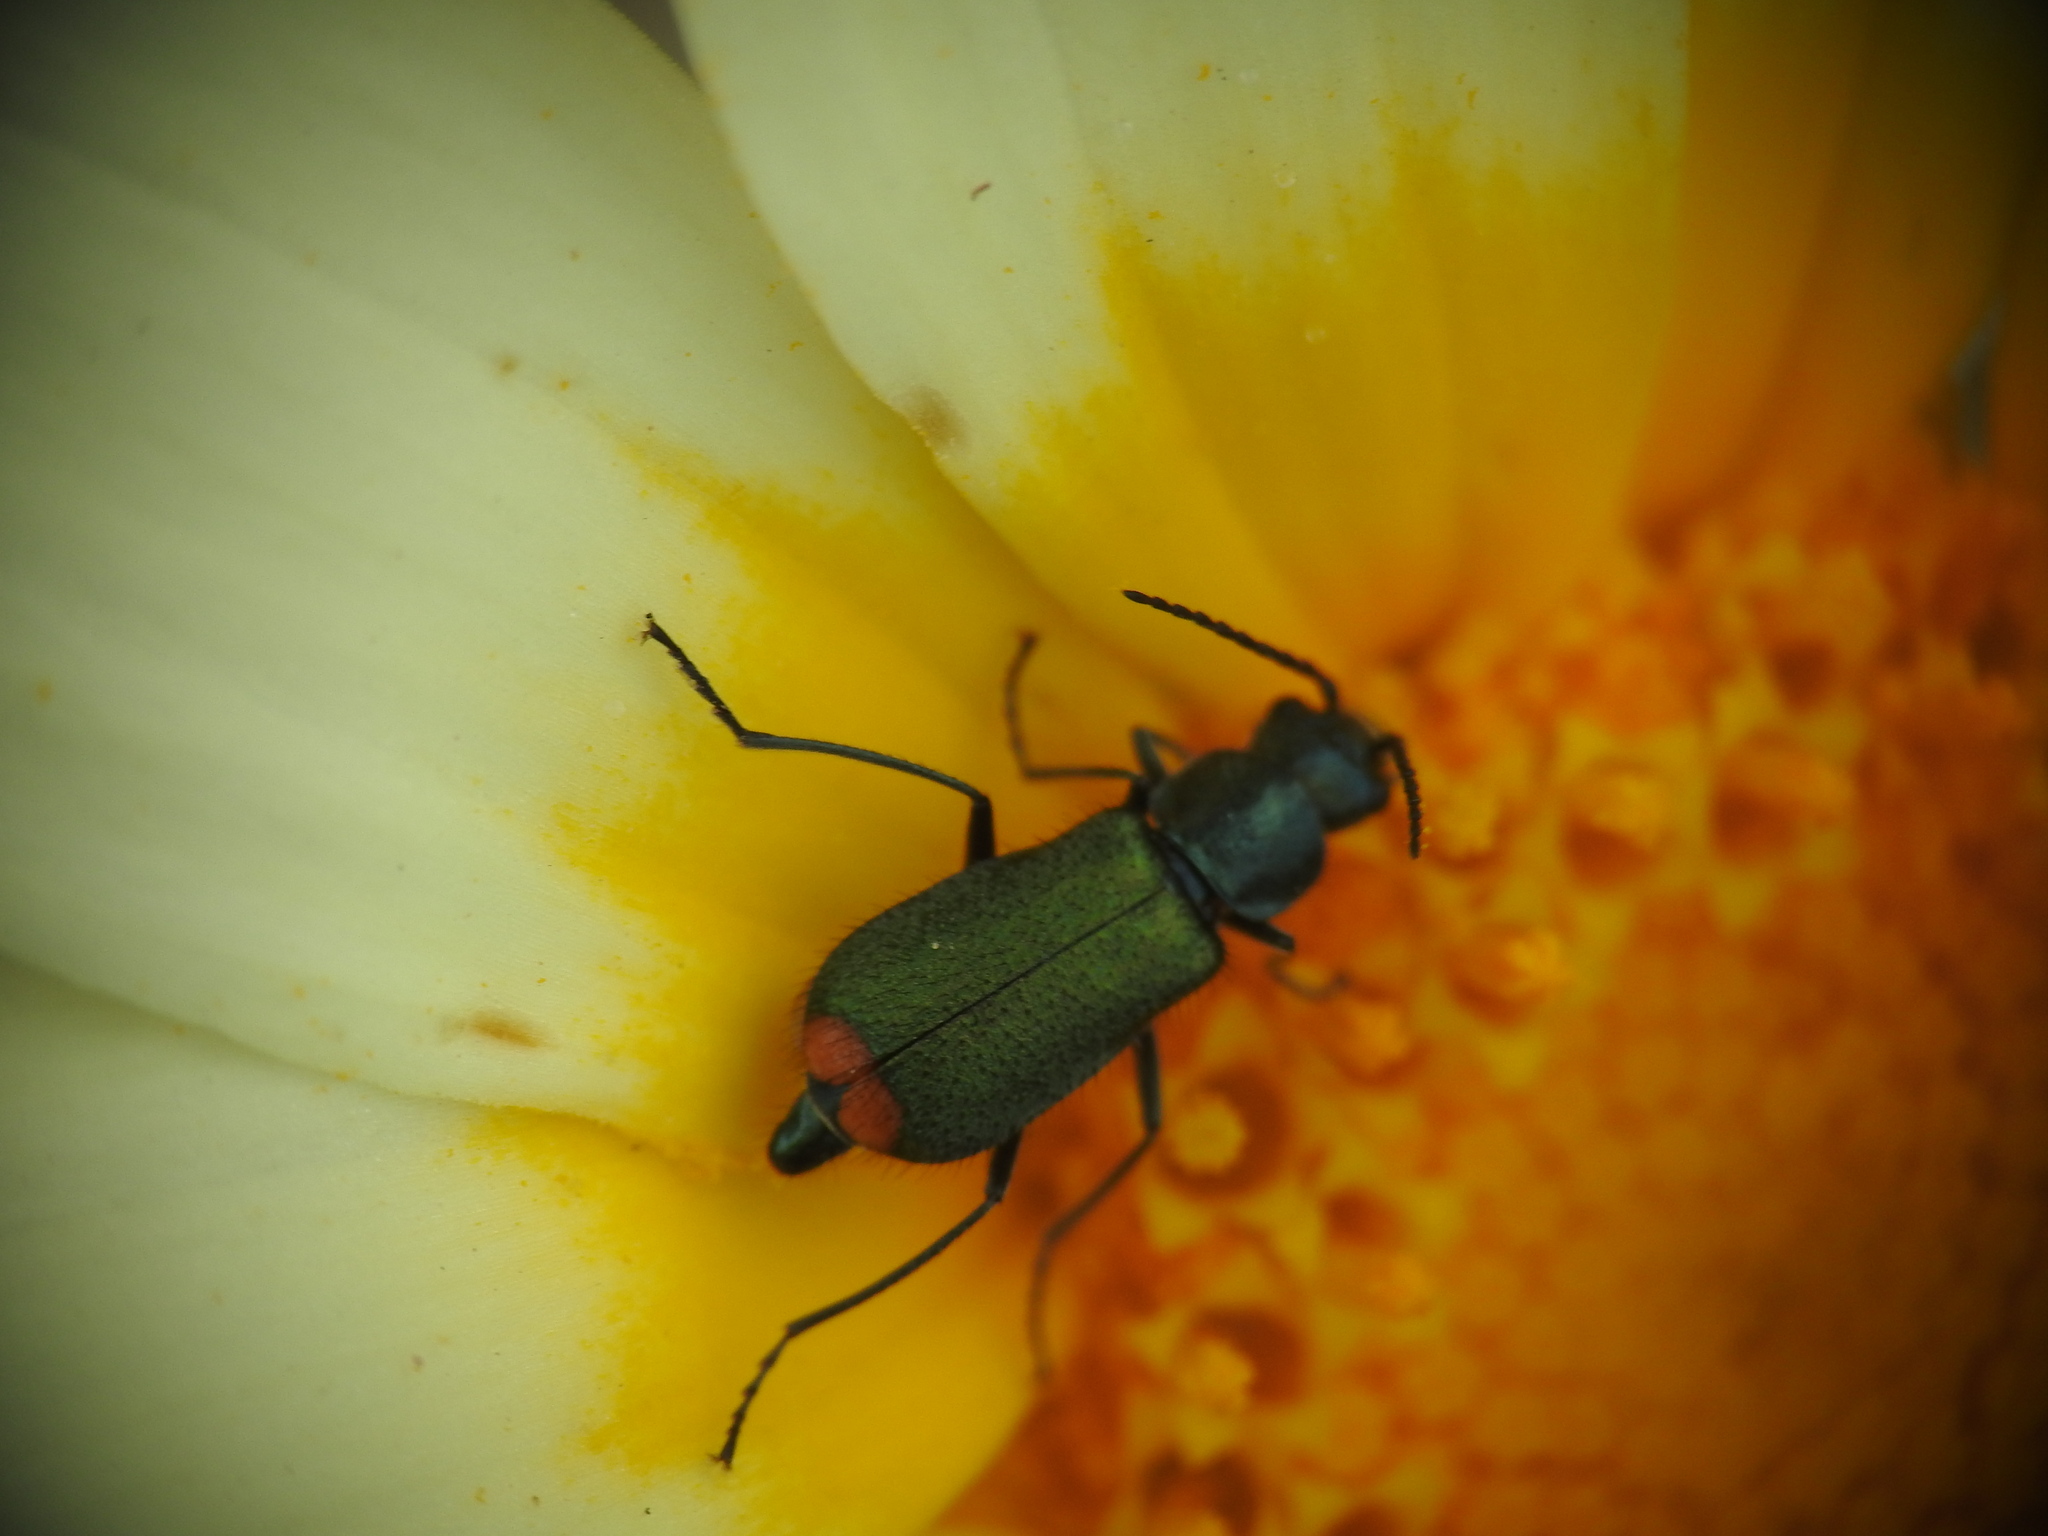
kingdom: Animalia
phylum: Arthropoda
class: Insecta
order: Coleoptera
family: Malachiidae
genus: Clanoptilus
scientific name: Clanoptilus spinipennis
